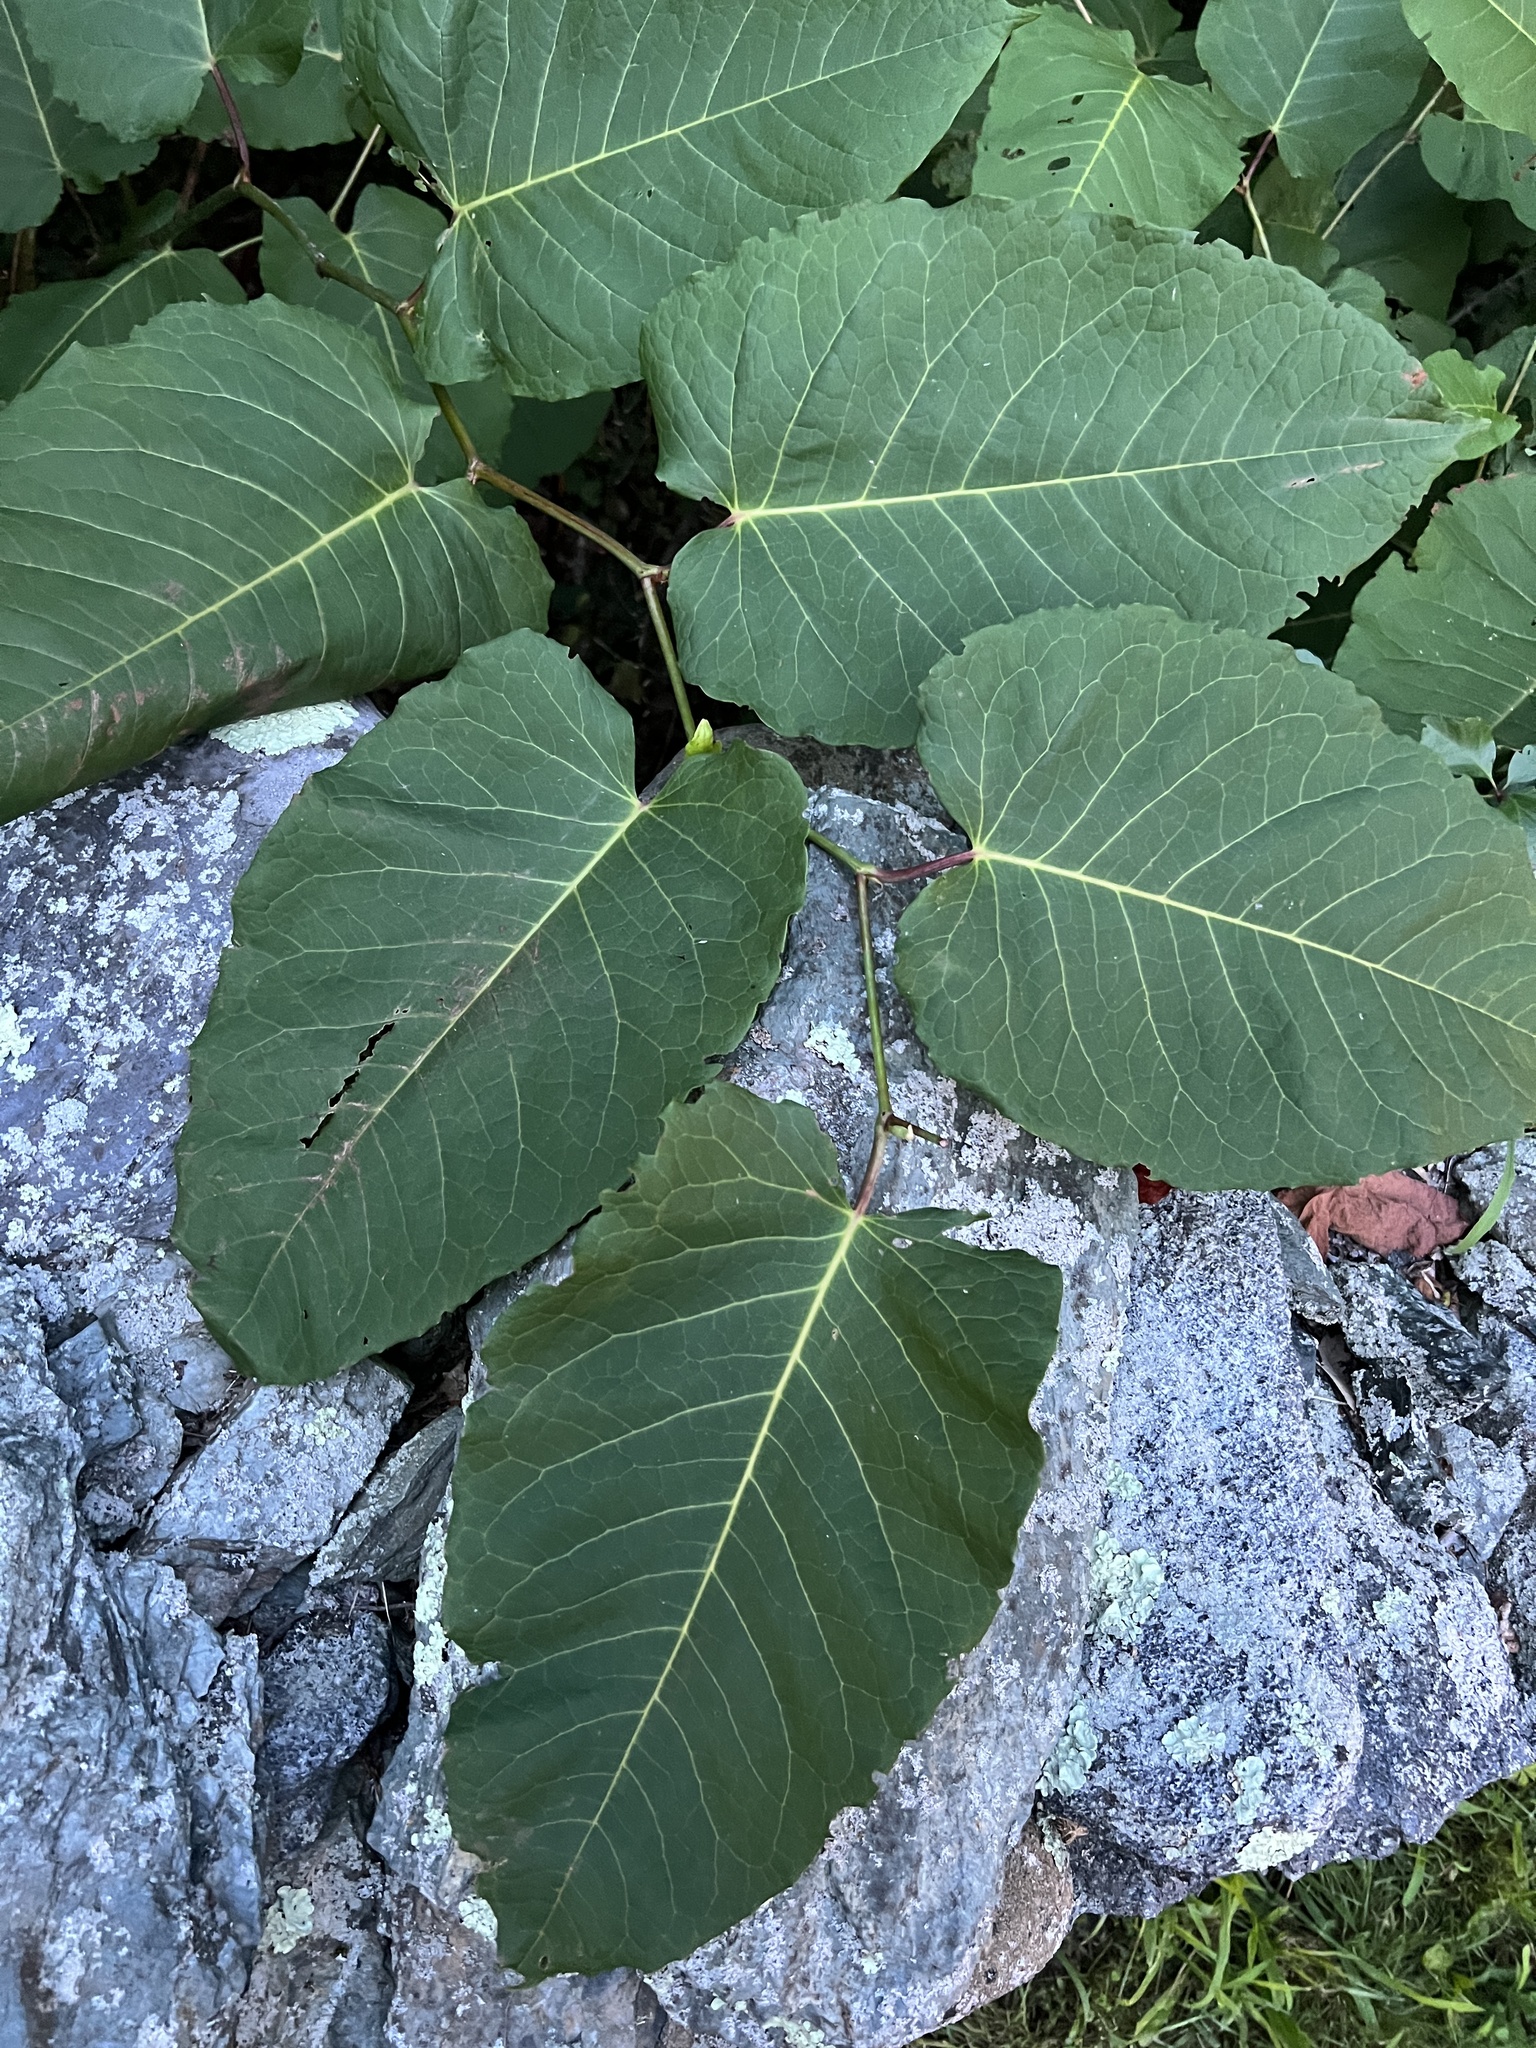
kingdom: Plantae
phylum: Tracheophyta
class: Magnoliopsida
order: Caryophyllales
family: Polygonaceae
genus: Reynoutria
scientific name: Reynoutria sachalinensis
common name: Giant knotweed
